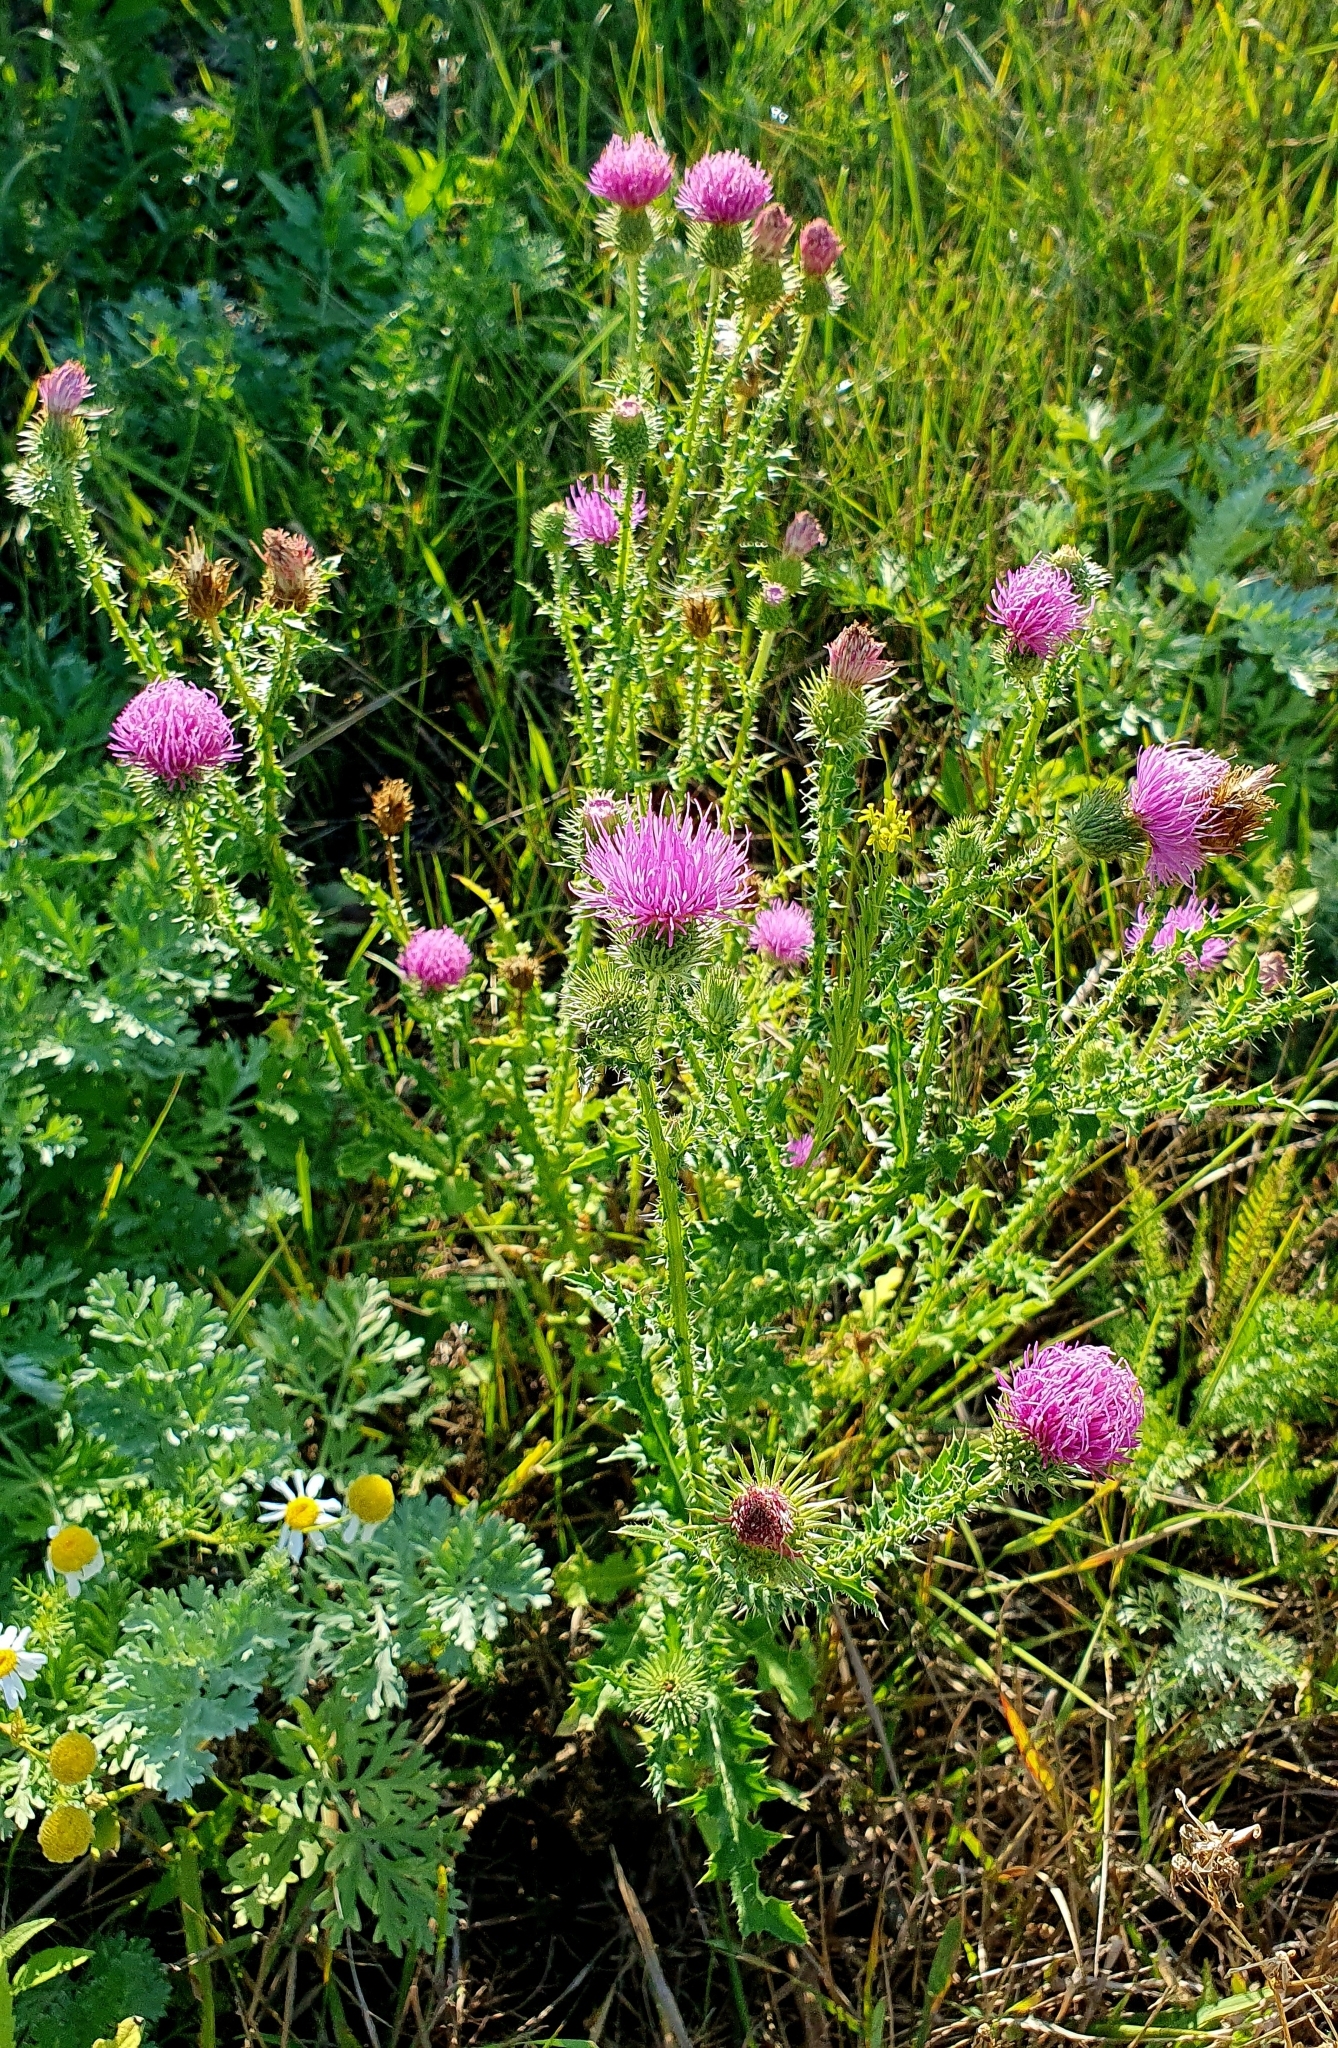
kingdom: Plantae
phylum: Tracheophyta
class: Magnoliopsida
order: Asterales
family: Asteraceae
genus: Carduus
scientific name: Carduus acanthoides
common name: Plumeless thistle
